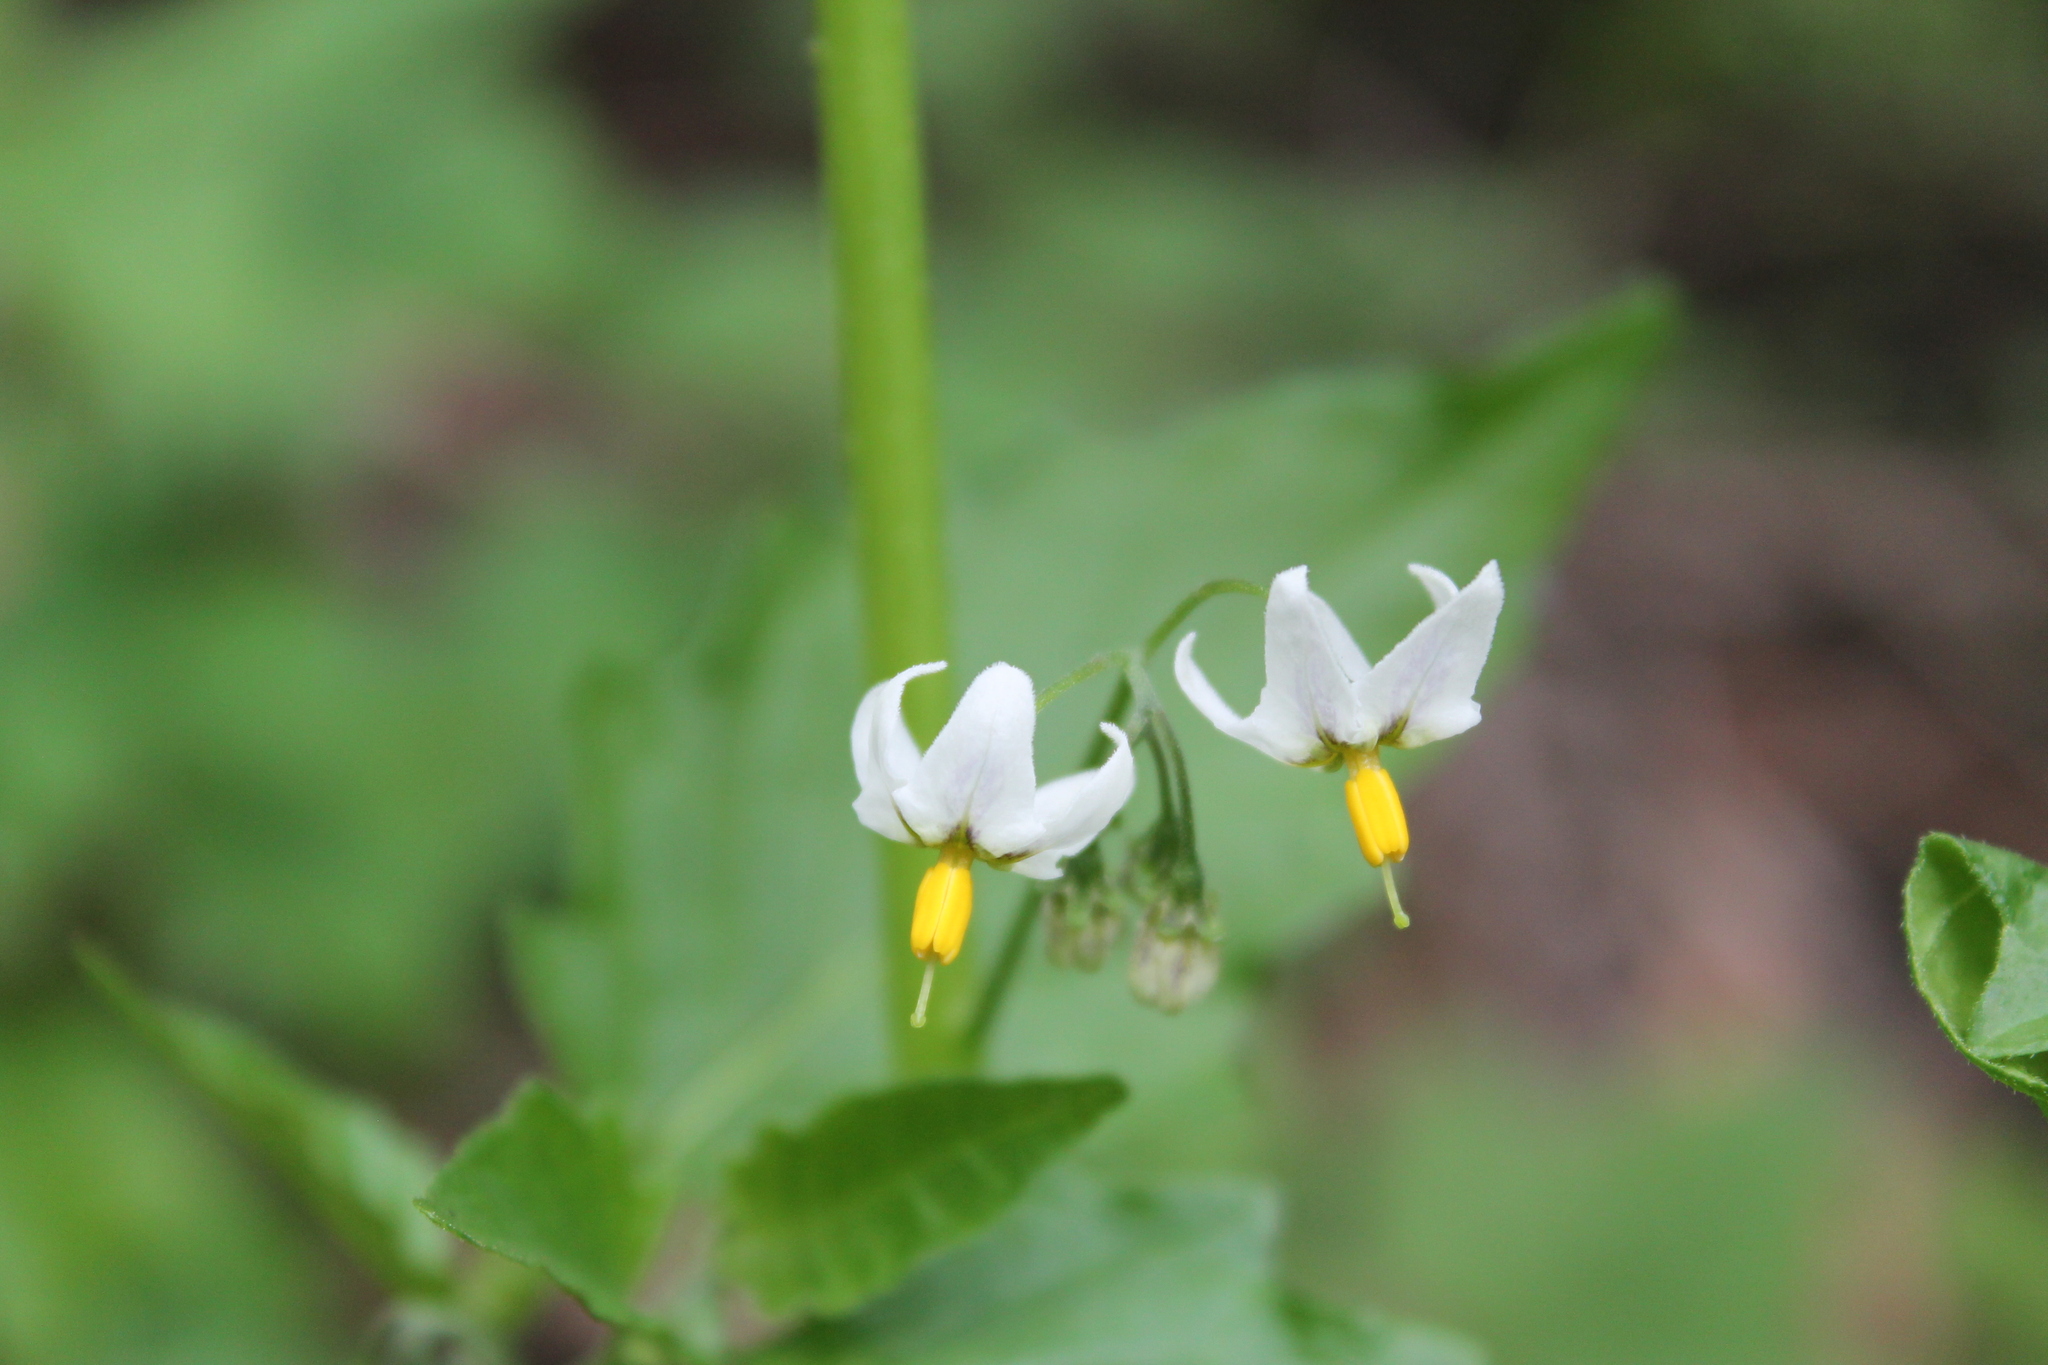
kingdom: Plantae
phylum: Tracheophyta
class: Magnoliopsida
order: Solanales
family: Solanaceae
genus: Solanum
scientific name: Solanum furcatum
